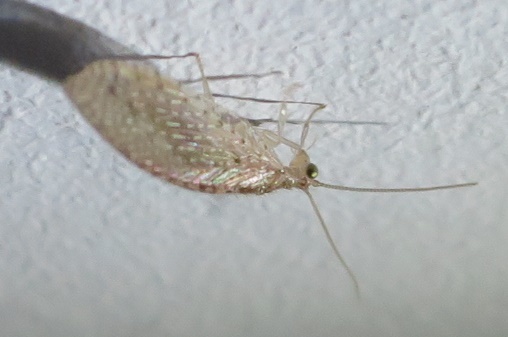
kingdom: Animalia
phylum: Arthropoda
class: Insecta
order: Neuroptera
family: Hemerobiidae
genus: Micromus
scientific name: Micromus tasmaniae
